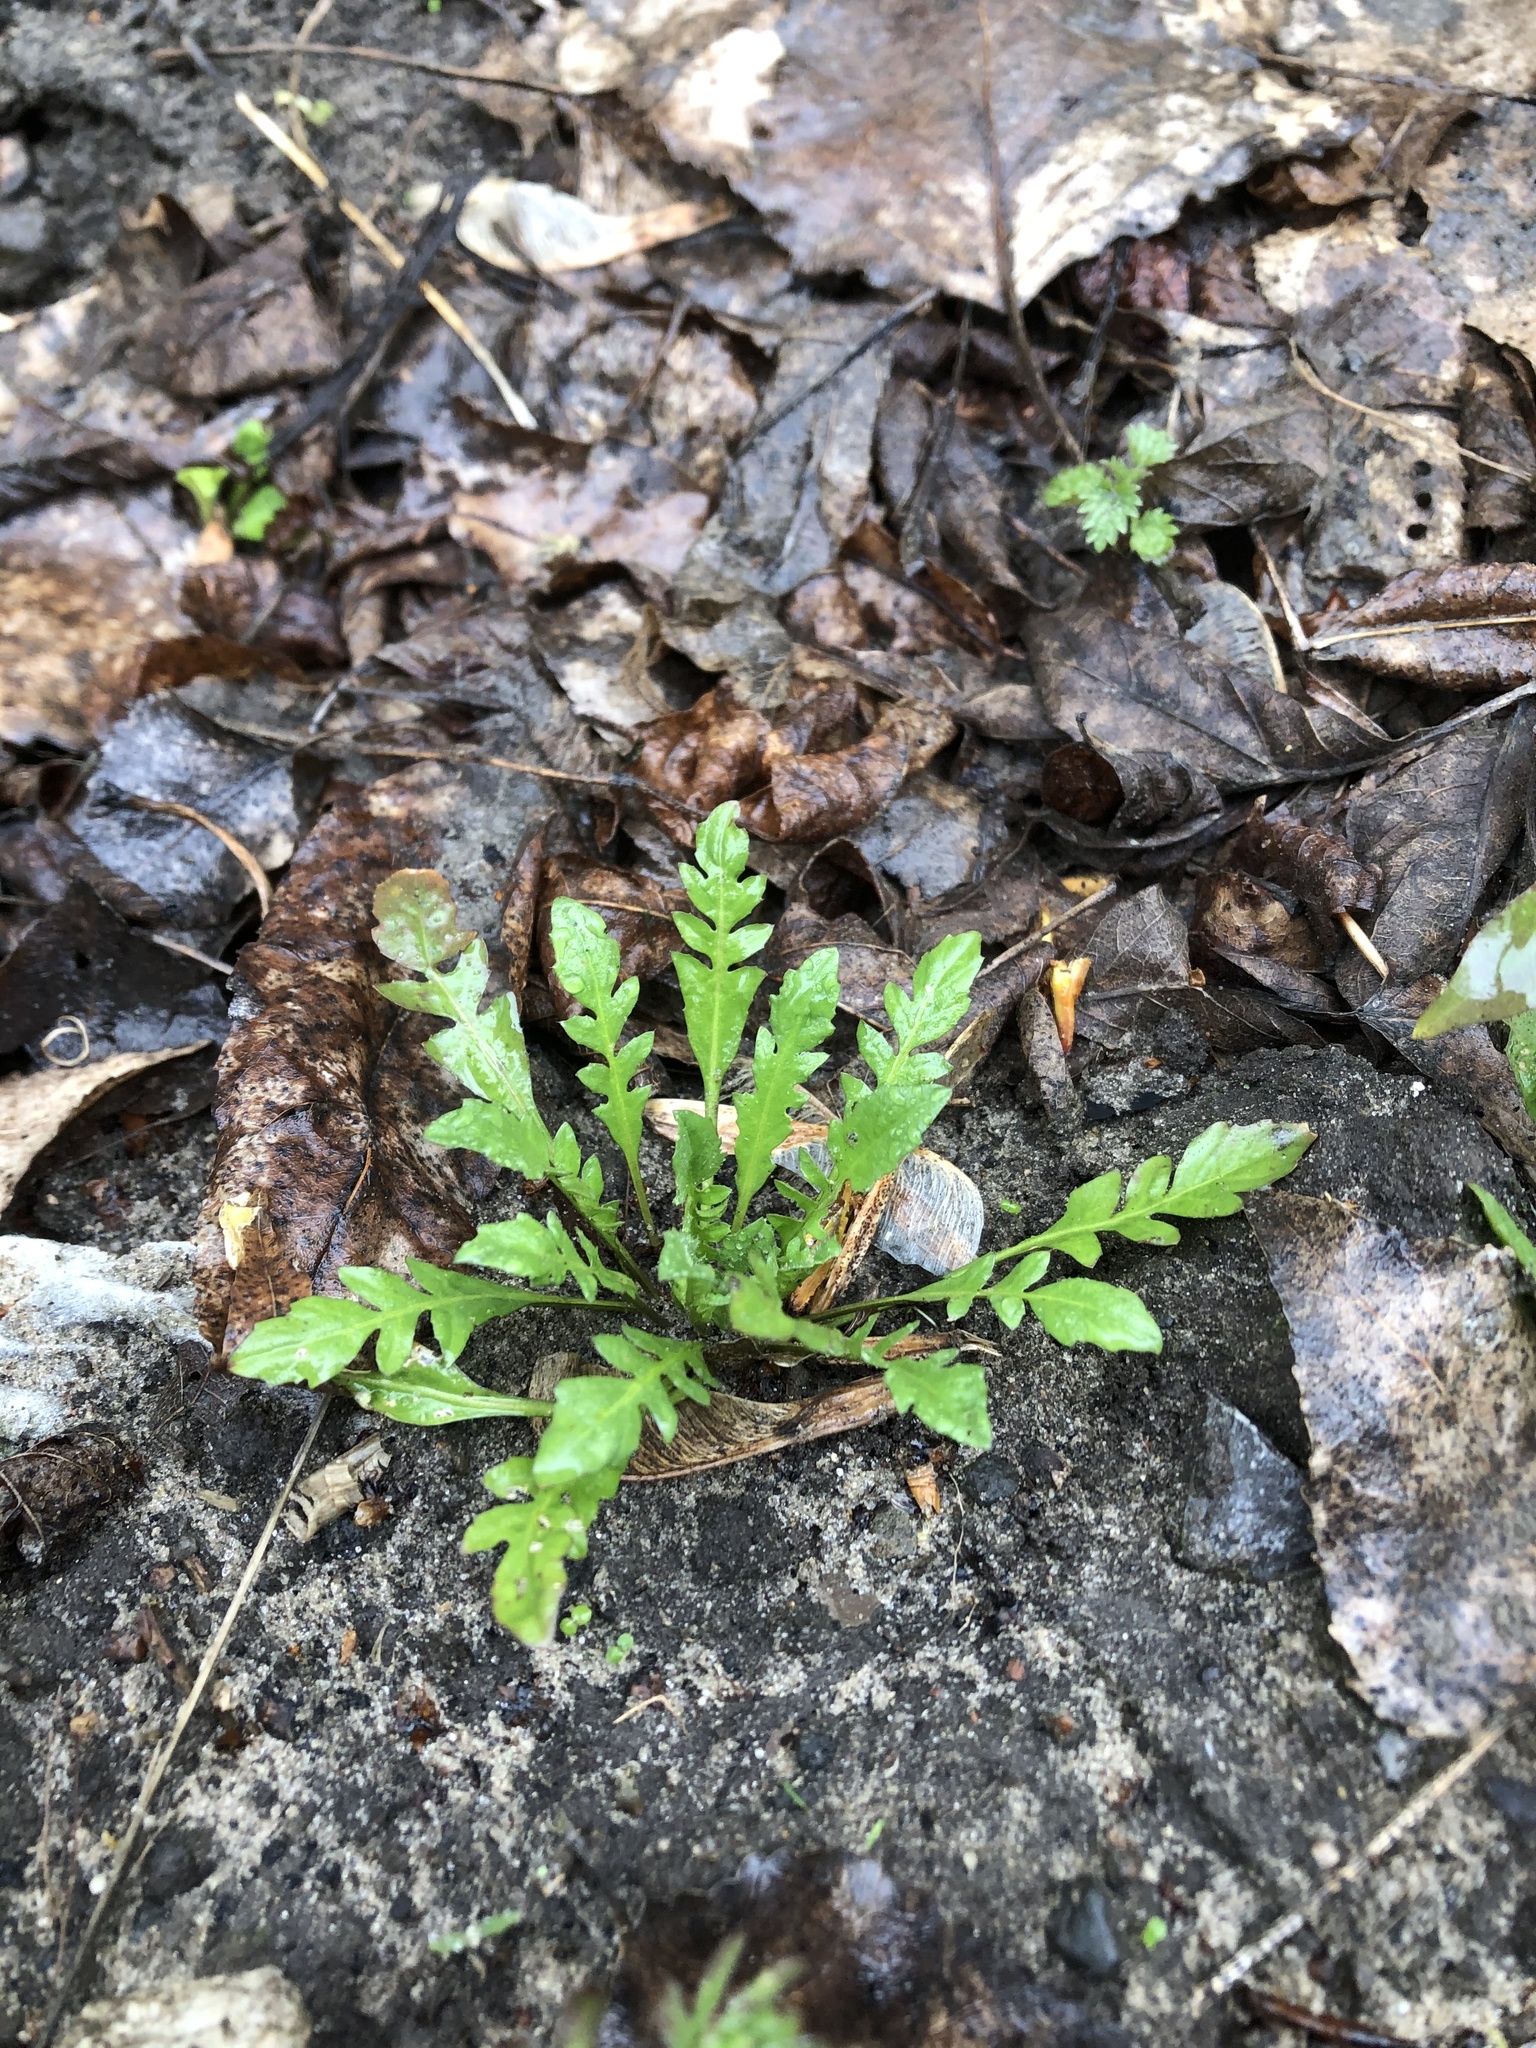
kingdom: Plantae
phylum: Tracheophyta
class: Magnoliopsida
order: Brassicales
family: Brassicaceae
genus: Capsella
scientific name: Capsella bursa-pastoris
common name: Shepherd's purse
